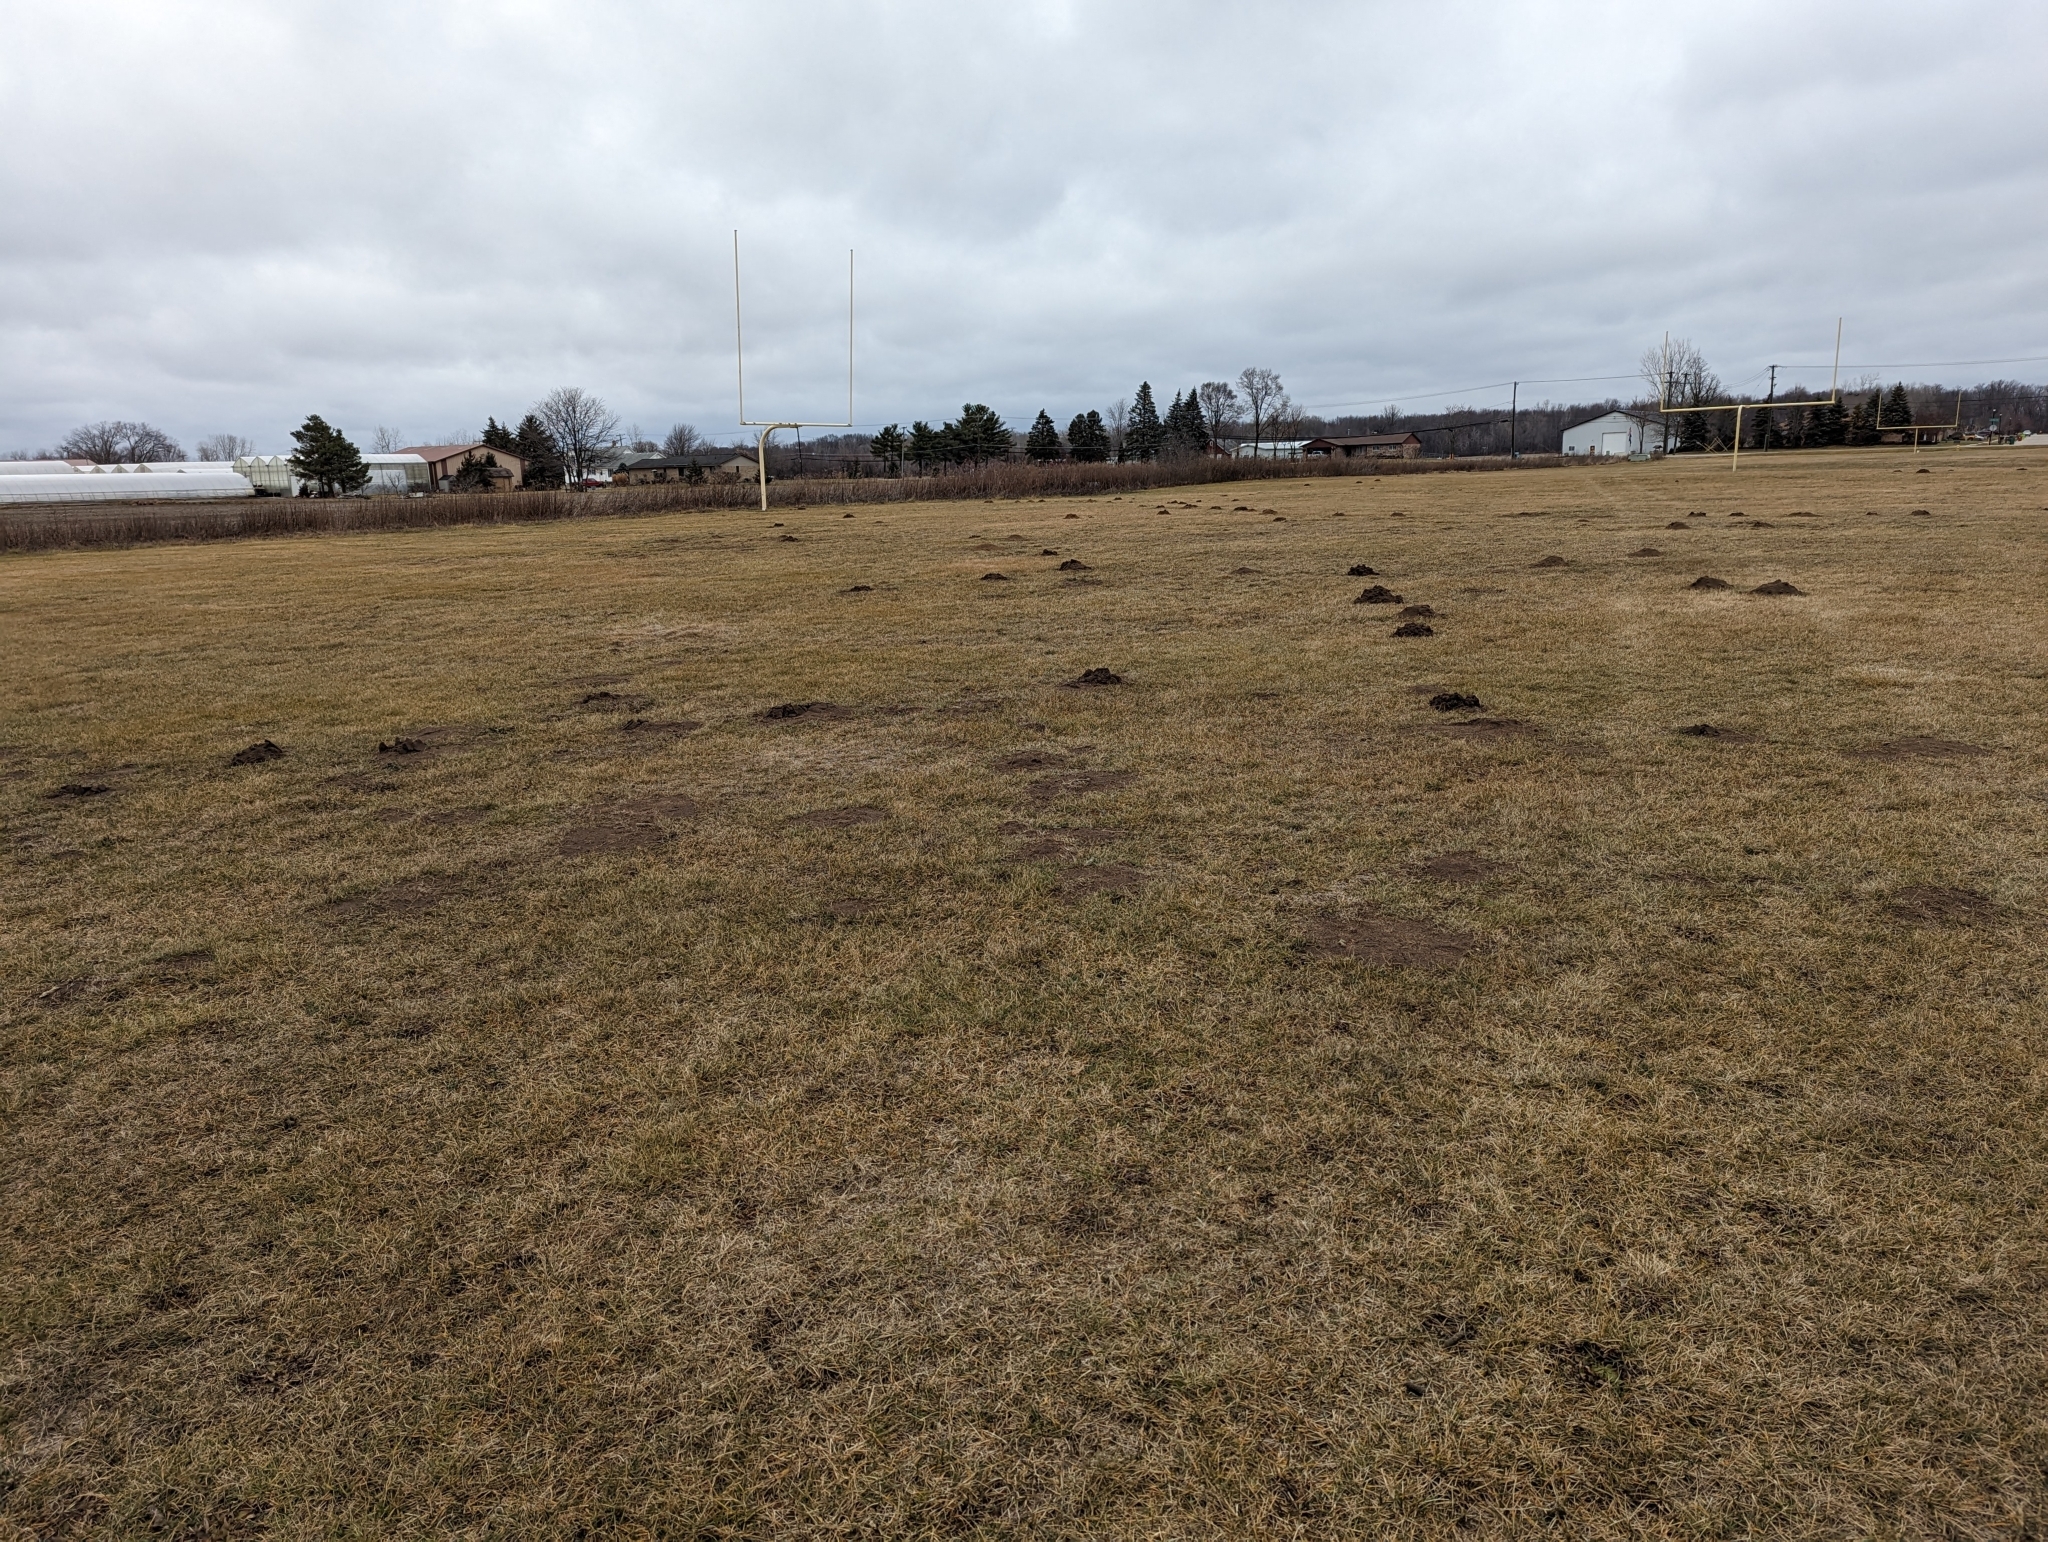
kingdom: Animalia
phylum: Chordata
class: Mammalia
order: Soricomorpha
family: Talpidae
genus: Scalopus
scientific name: Scalopus aquaticus
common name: Eastern mole
